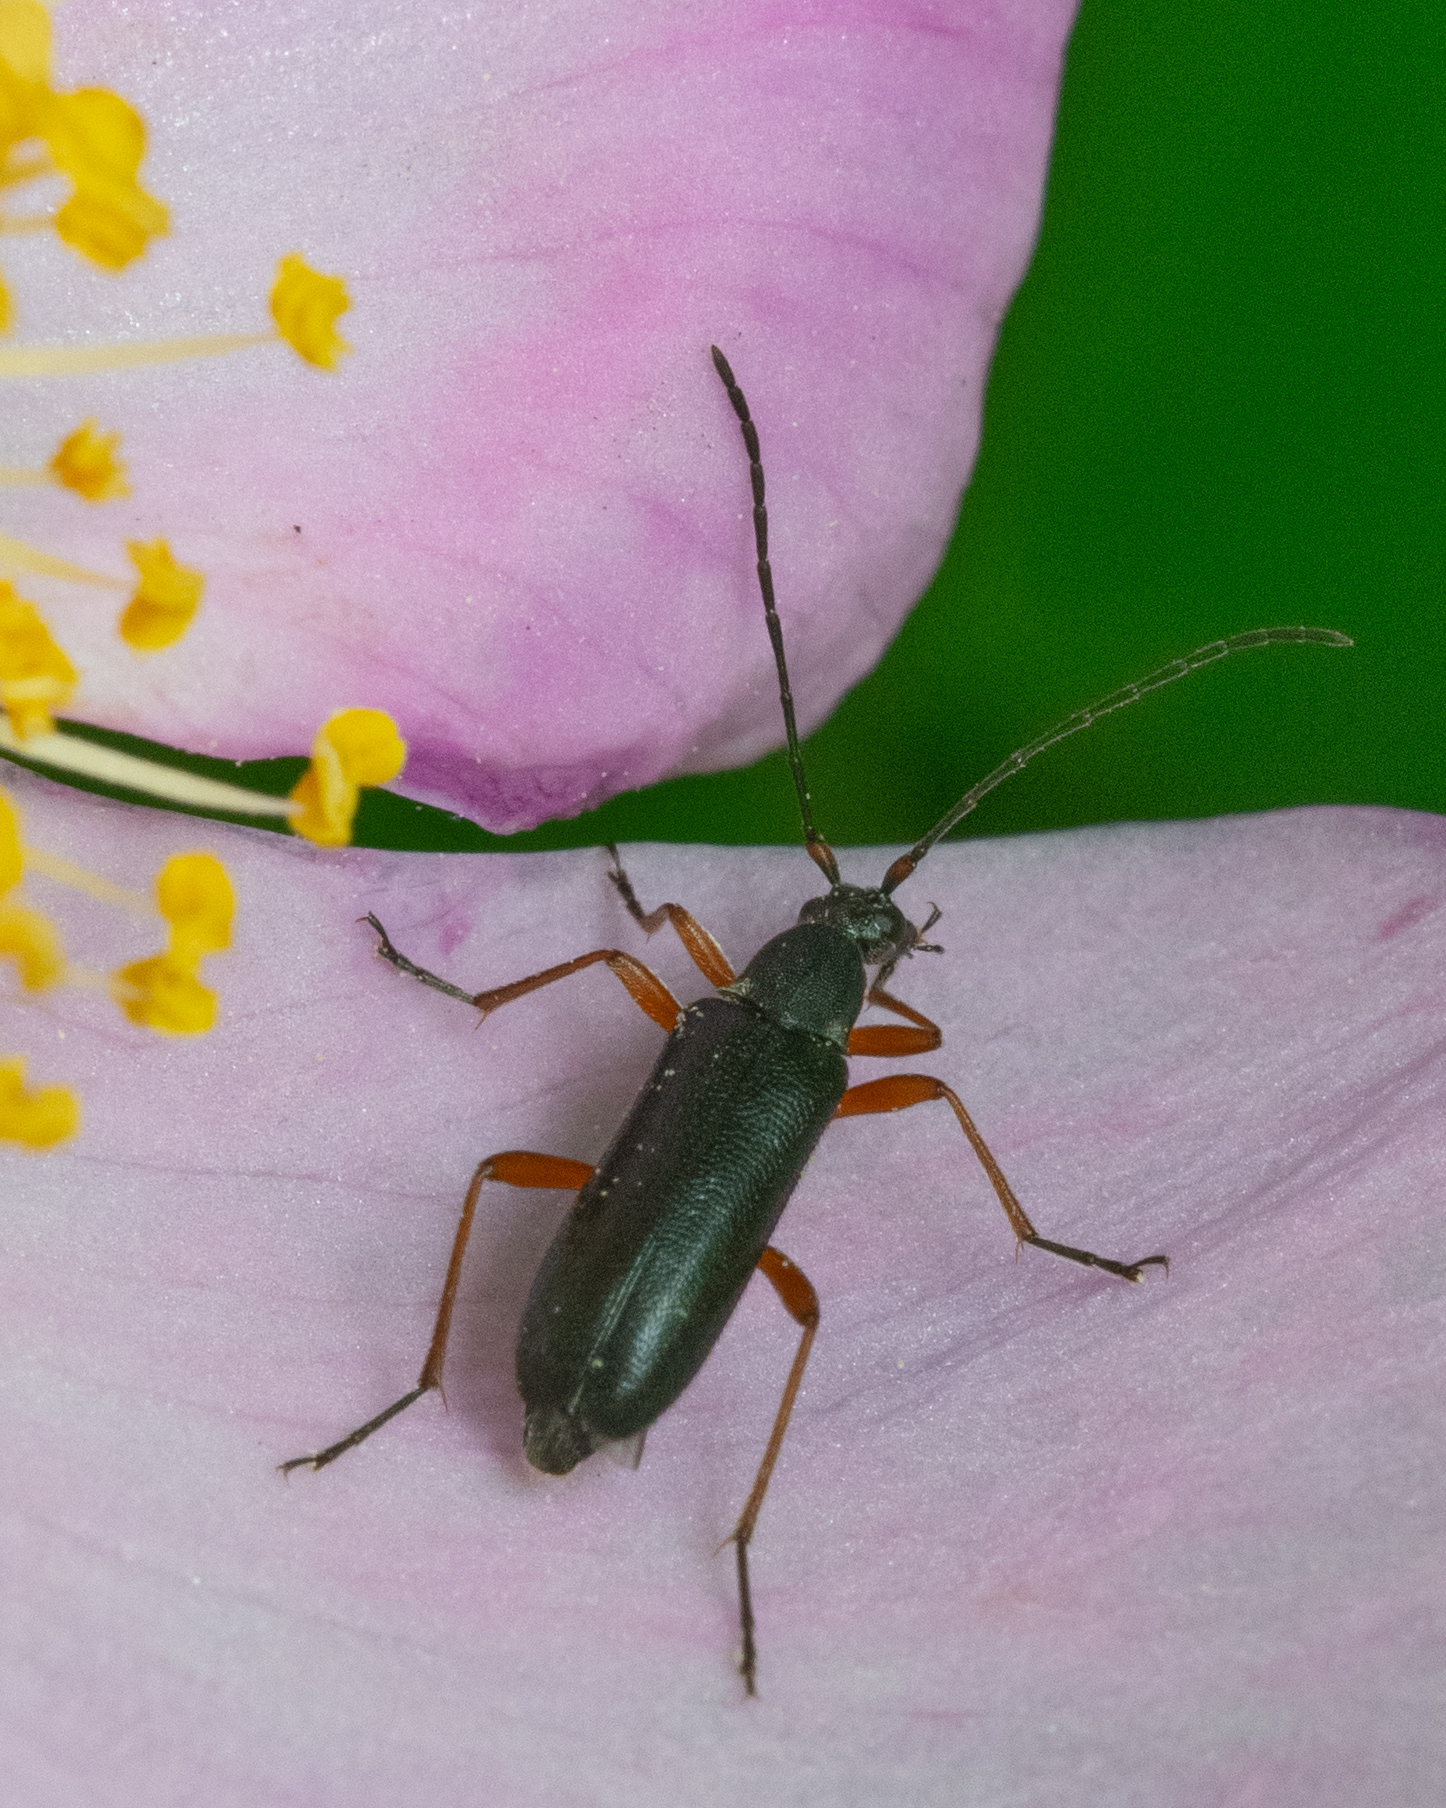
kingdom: Animalia
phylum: Arthropoda
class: Insecta
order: Coleoptera
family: Cerambycidae
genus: Grammoptera
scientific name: Grammoptera subargentata
